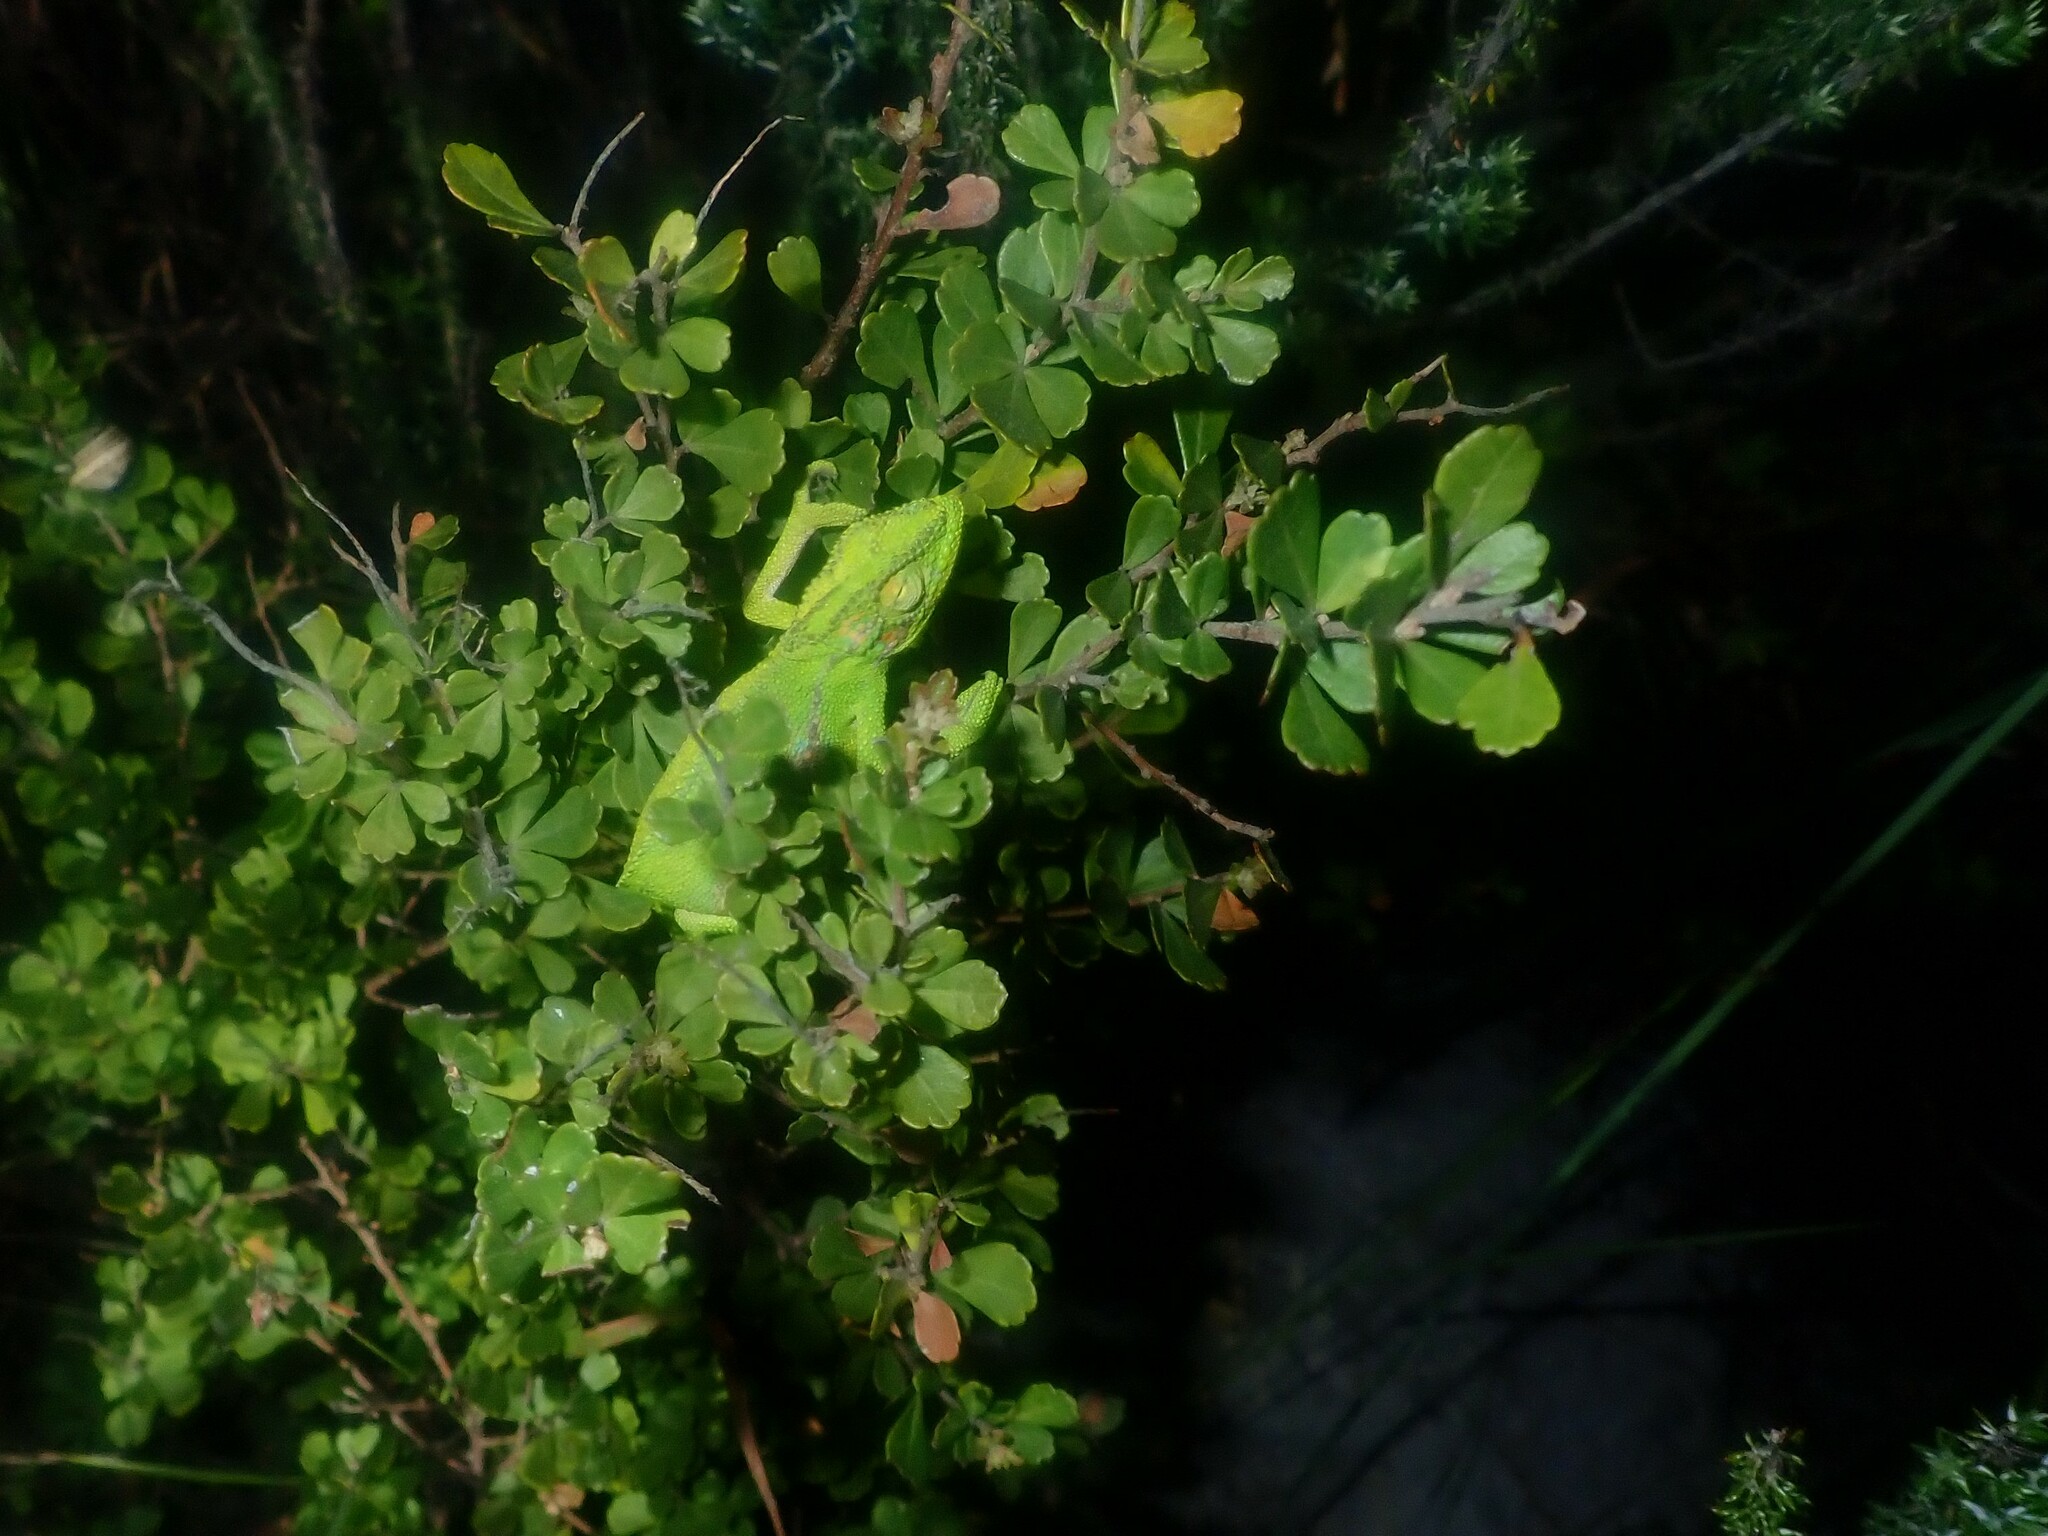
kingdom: Animalia
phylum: Chordata
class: Squamata
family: Chamaeleonidae
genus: Bradypodion
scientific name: Bradypodion pumilum
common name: Cape dwarf chameleon
